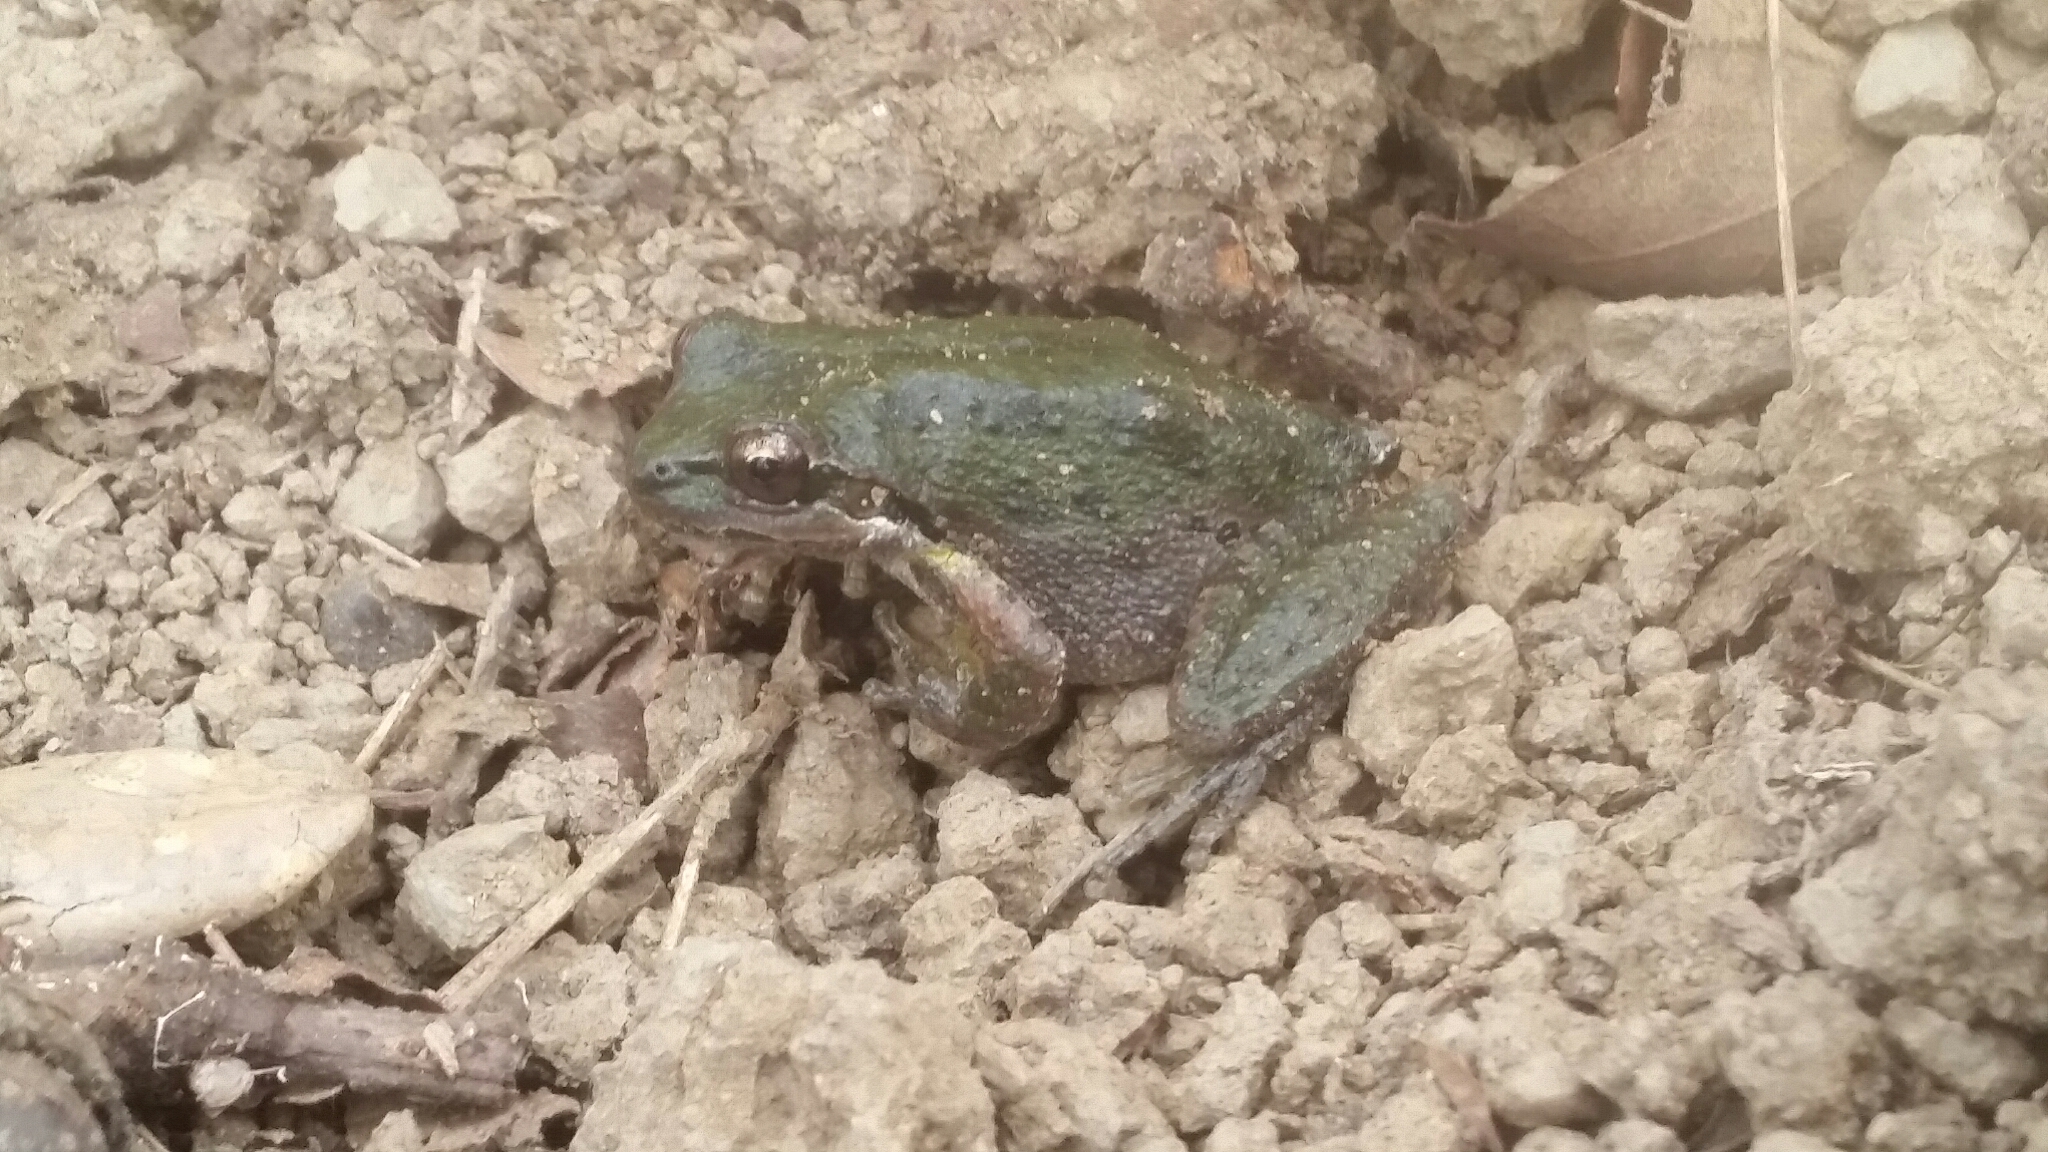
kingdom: Animalia
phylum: Chordata
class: Amphibia
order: Anura
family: Hylidae
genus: Pseudacris
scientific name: Pseudacris regilla
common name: Pacific chorus frog
